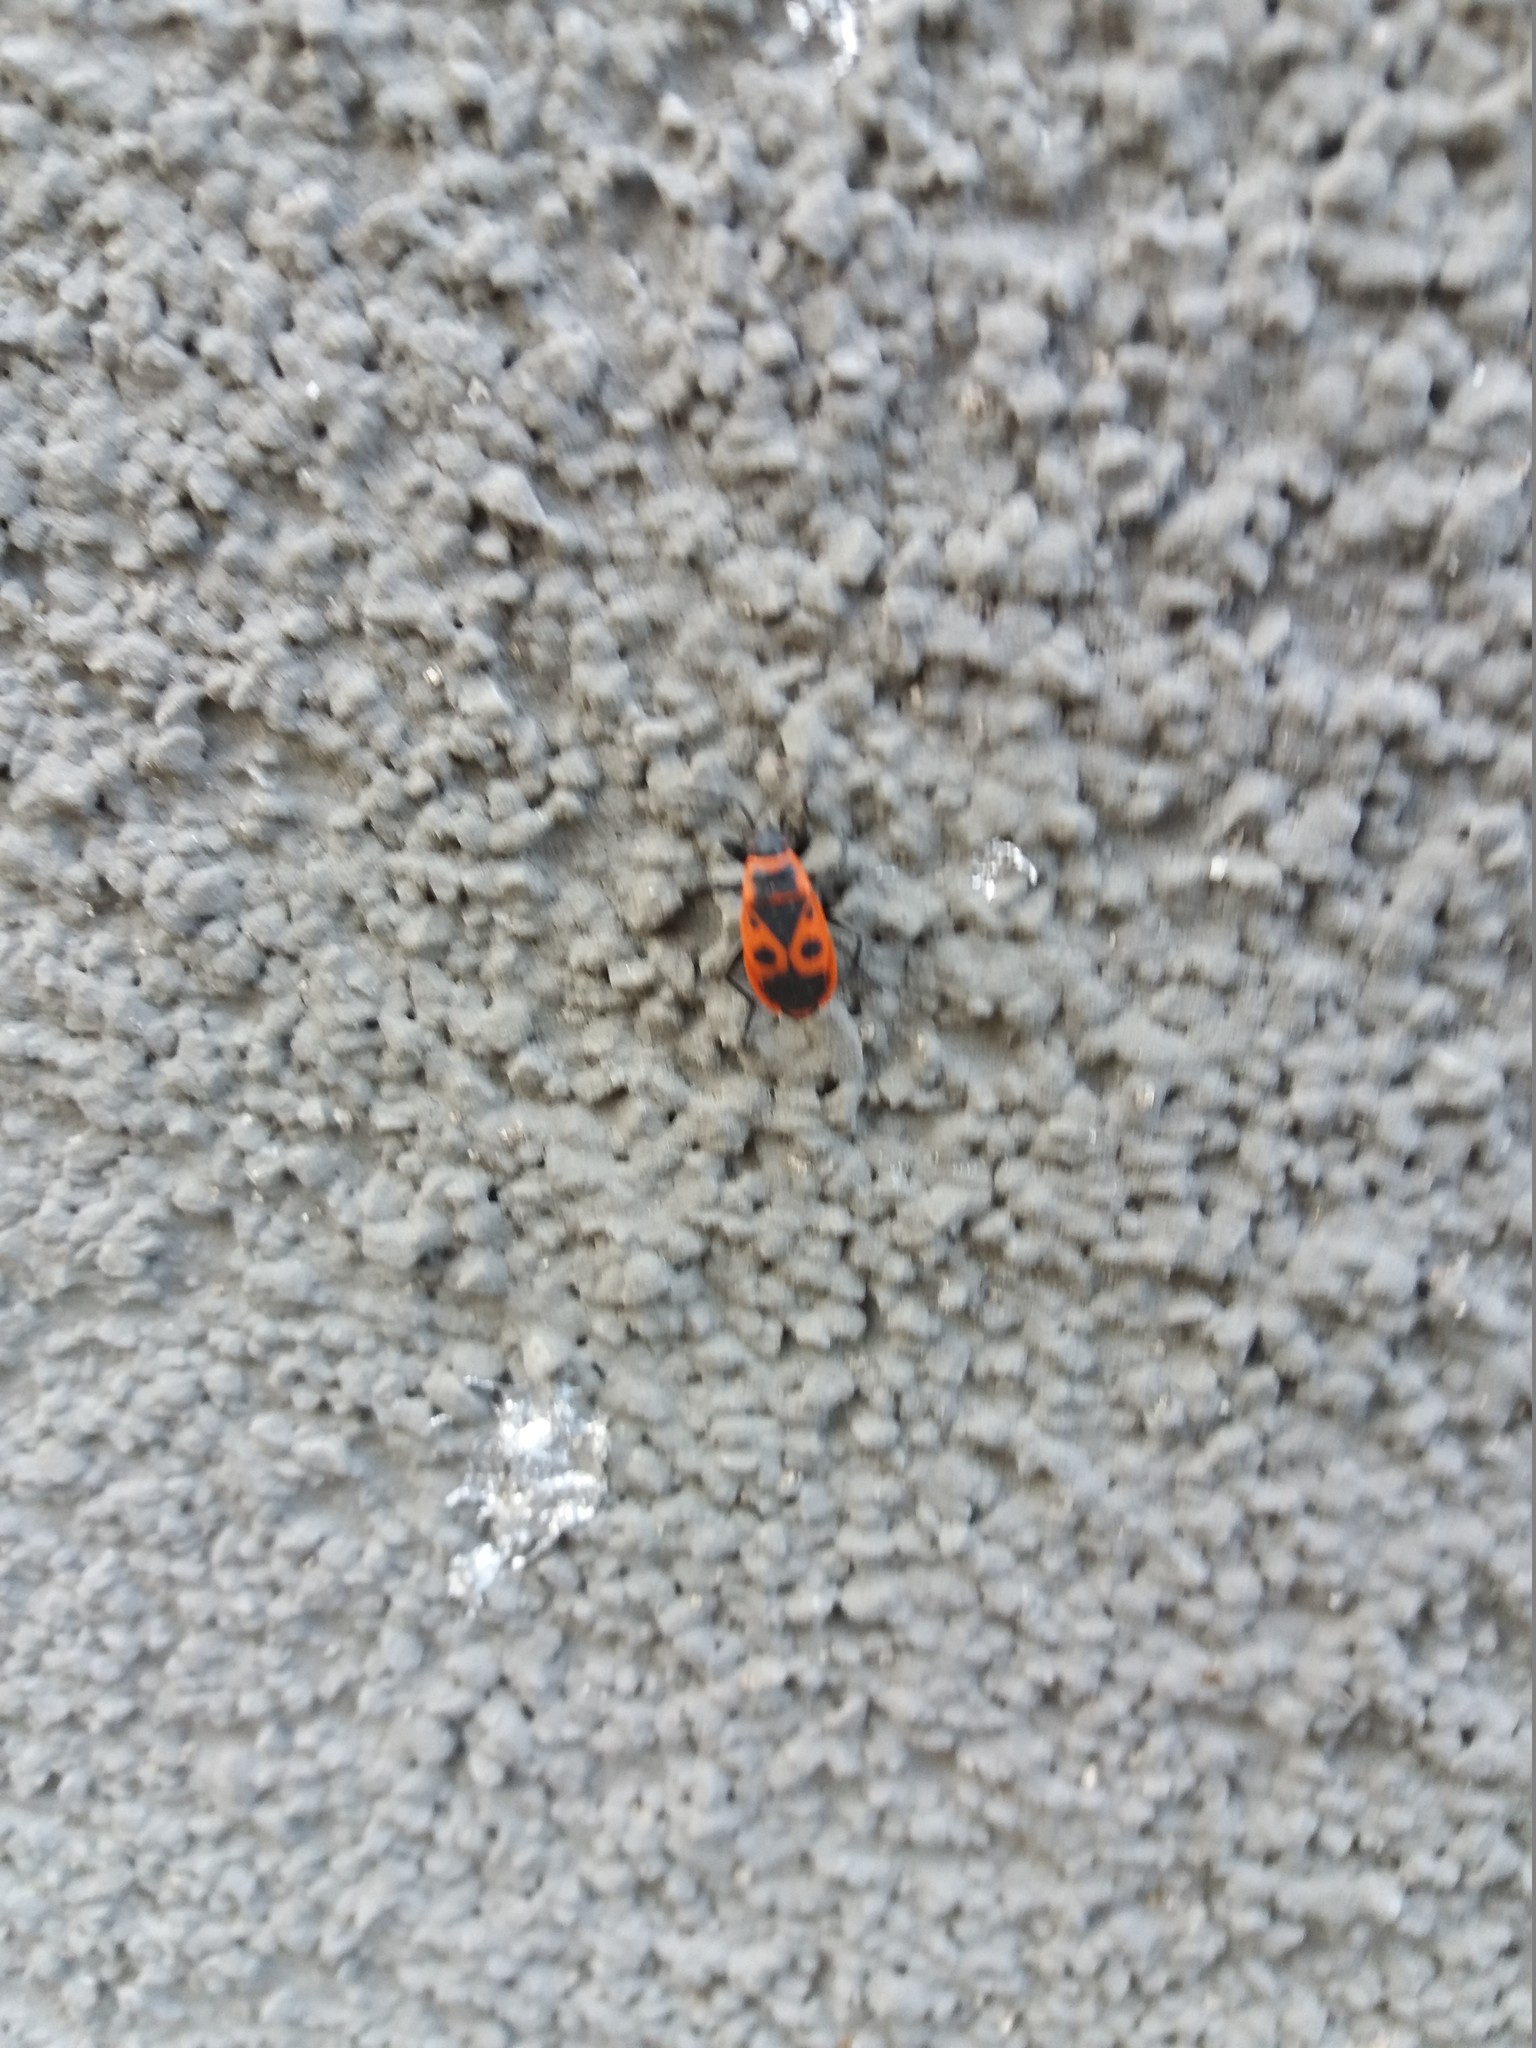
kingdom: Animalia
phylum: Arthropoda
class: Insecta
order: Hemiptera
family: Pyrrhocoridae
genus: Pyrrhocoris
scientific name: Pyrrhocoris apterus
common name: Firebug
